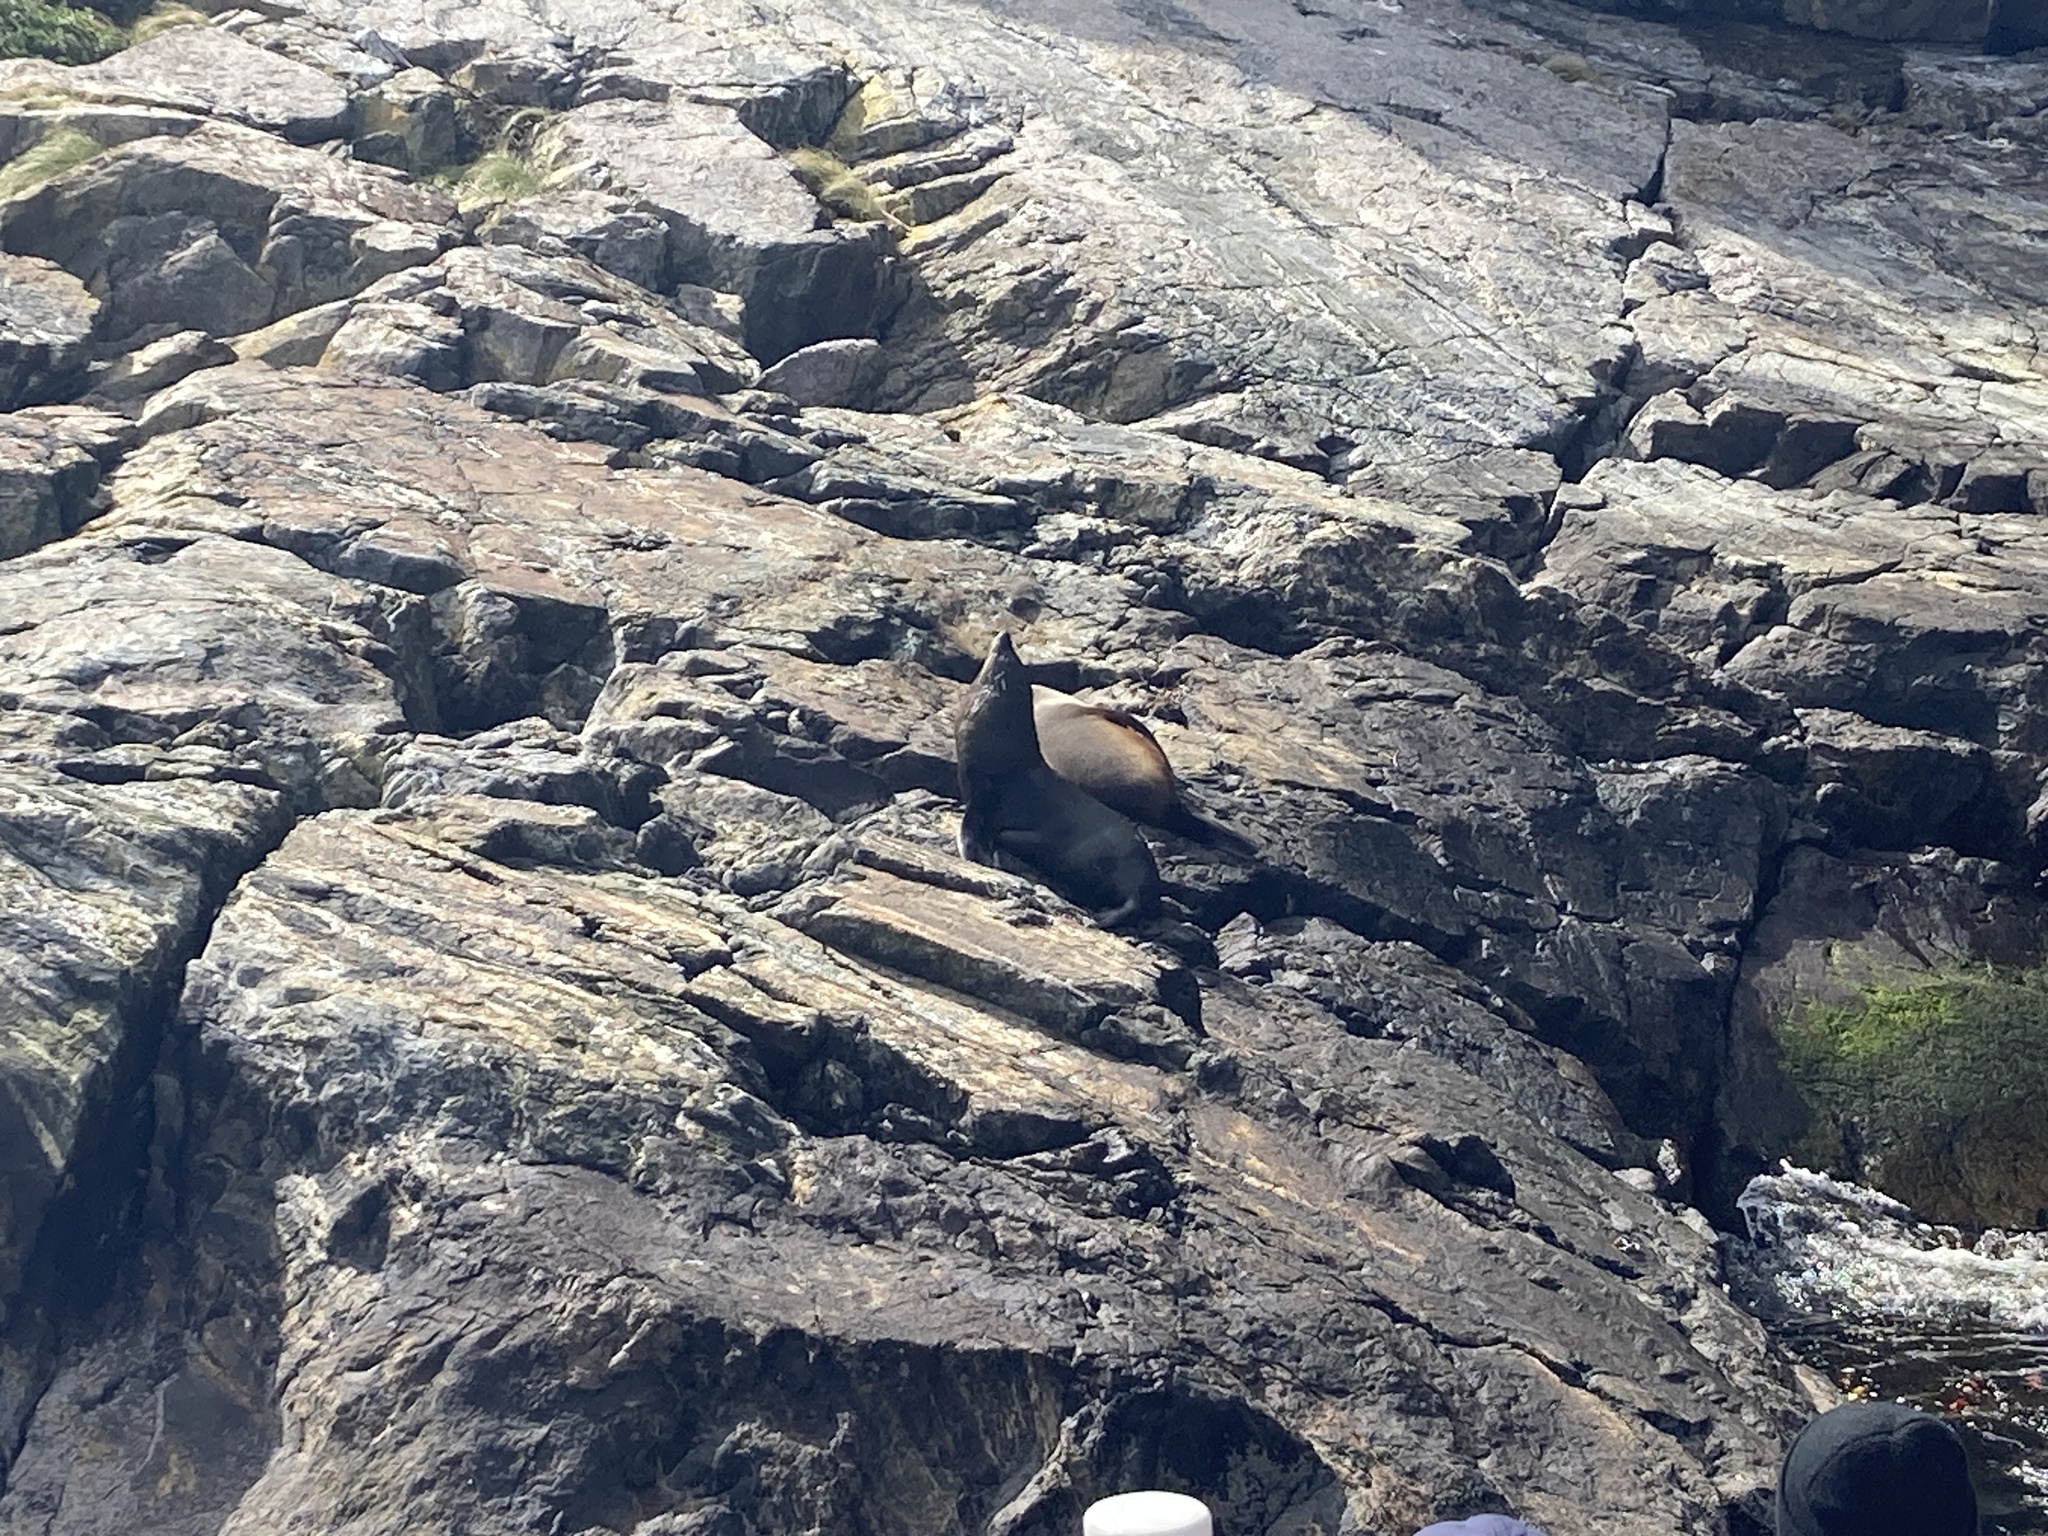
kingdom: Animalia
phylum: Chordata
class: Mammalia
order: Carnivora
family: Otariidae
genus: Arctocephalus
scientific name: Arctocephalus forsteri
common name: New zealand fur seal
